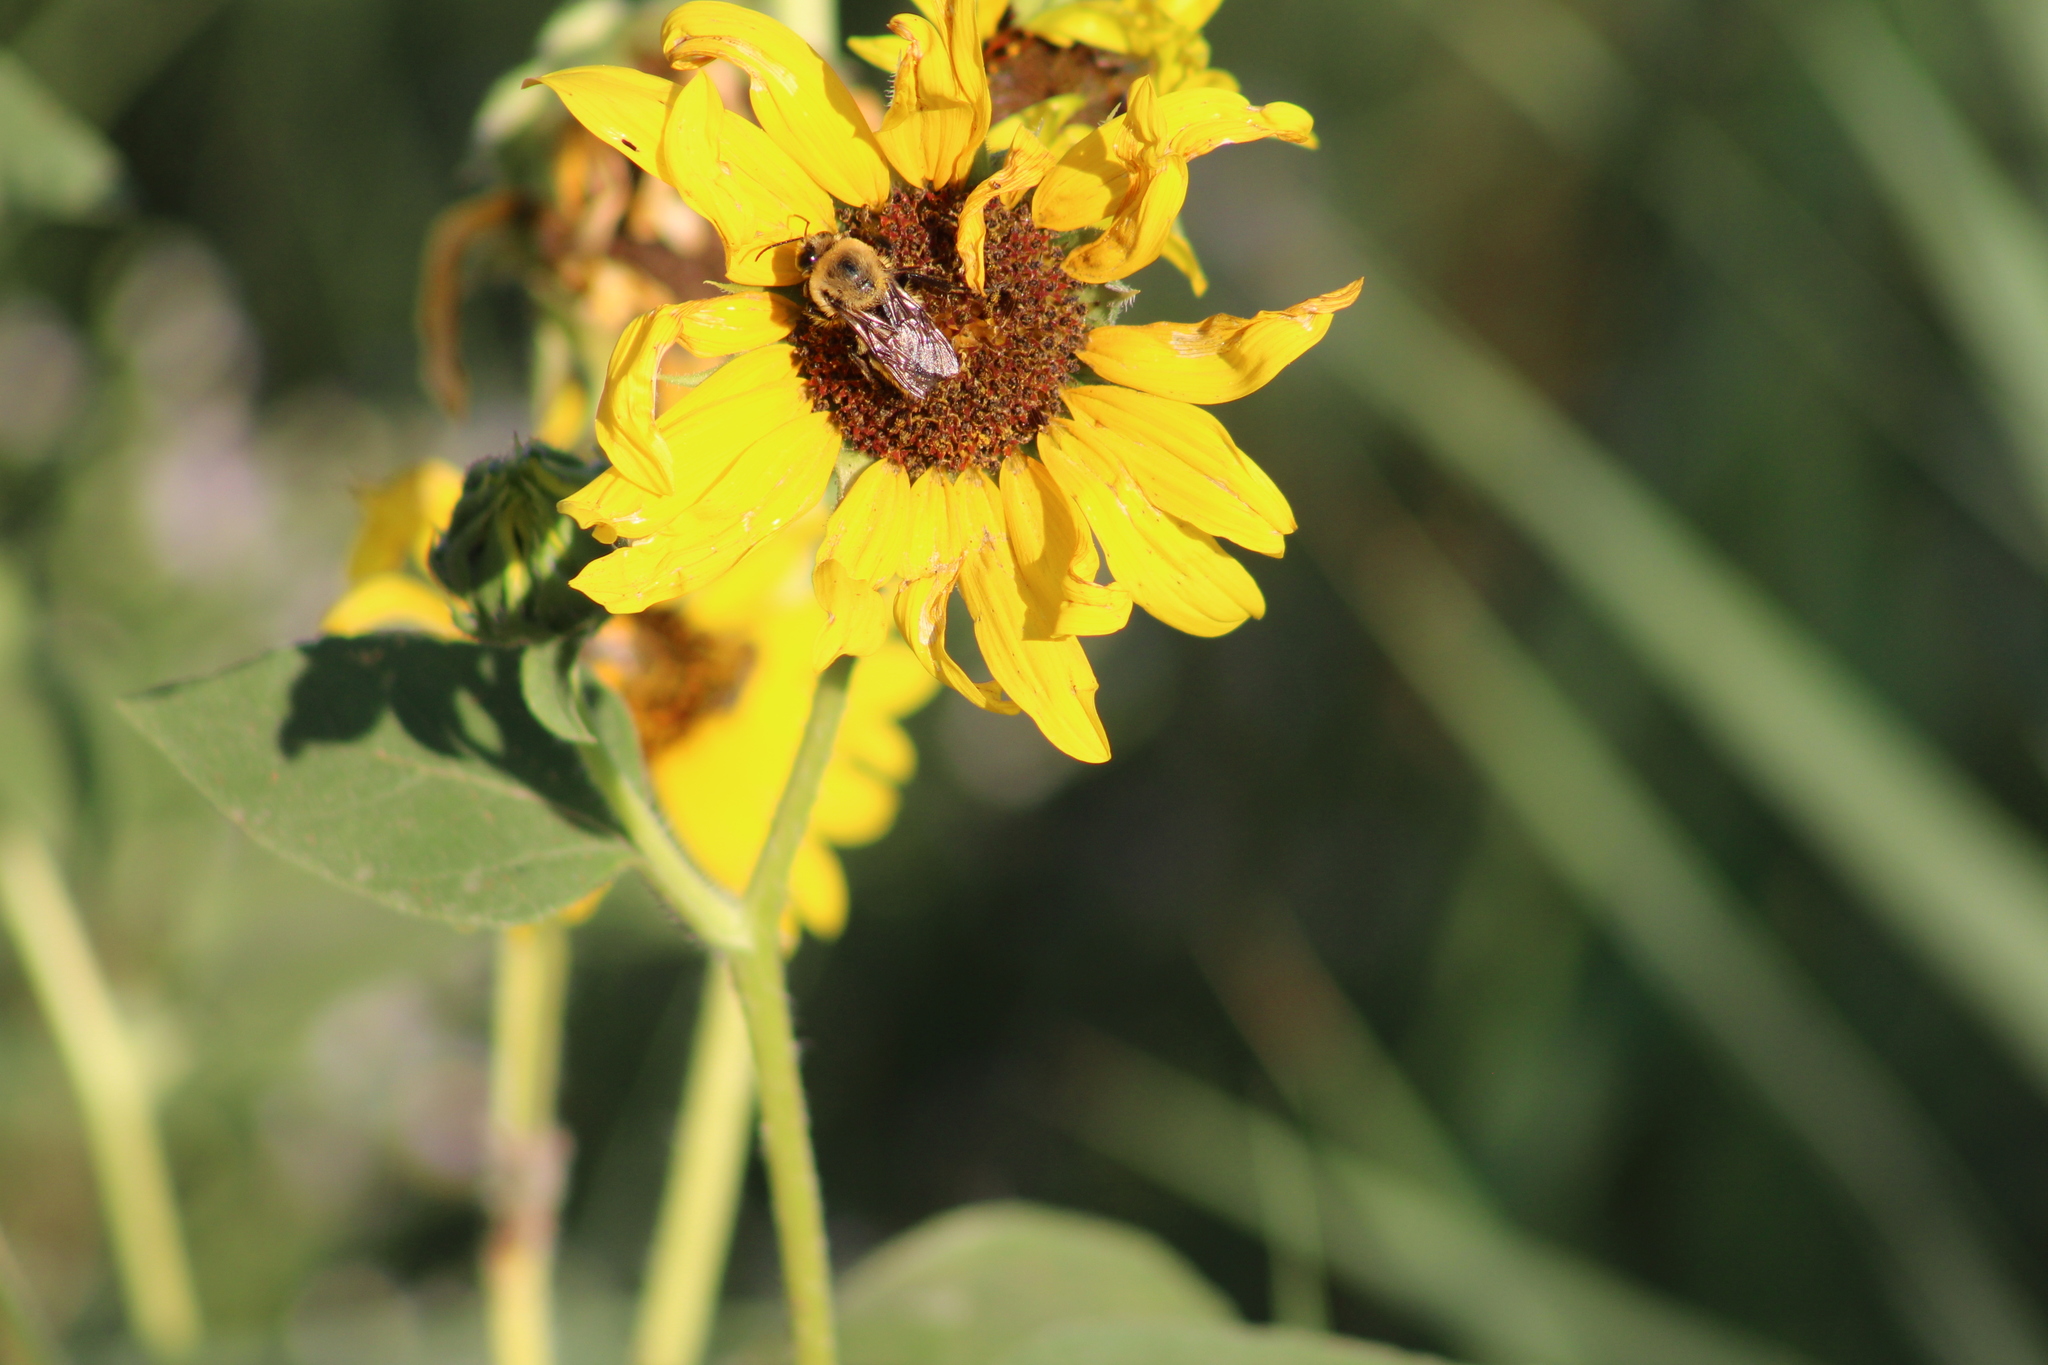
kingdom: Animalia
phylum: Arthropoda
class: Insecta
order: Hymenoptera
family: Apidae
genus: Bombus
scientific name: Bombus griseocollis
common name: Brown-belted bumble bee
